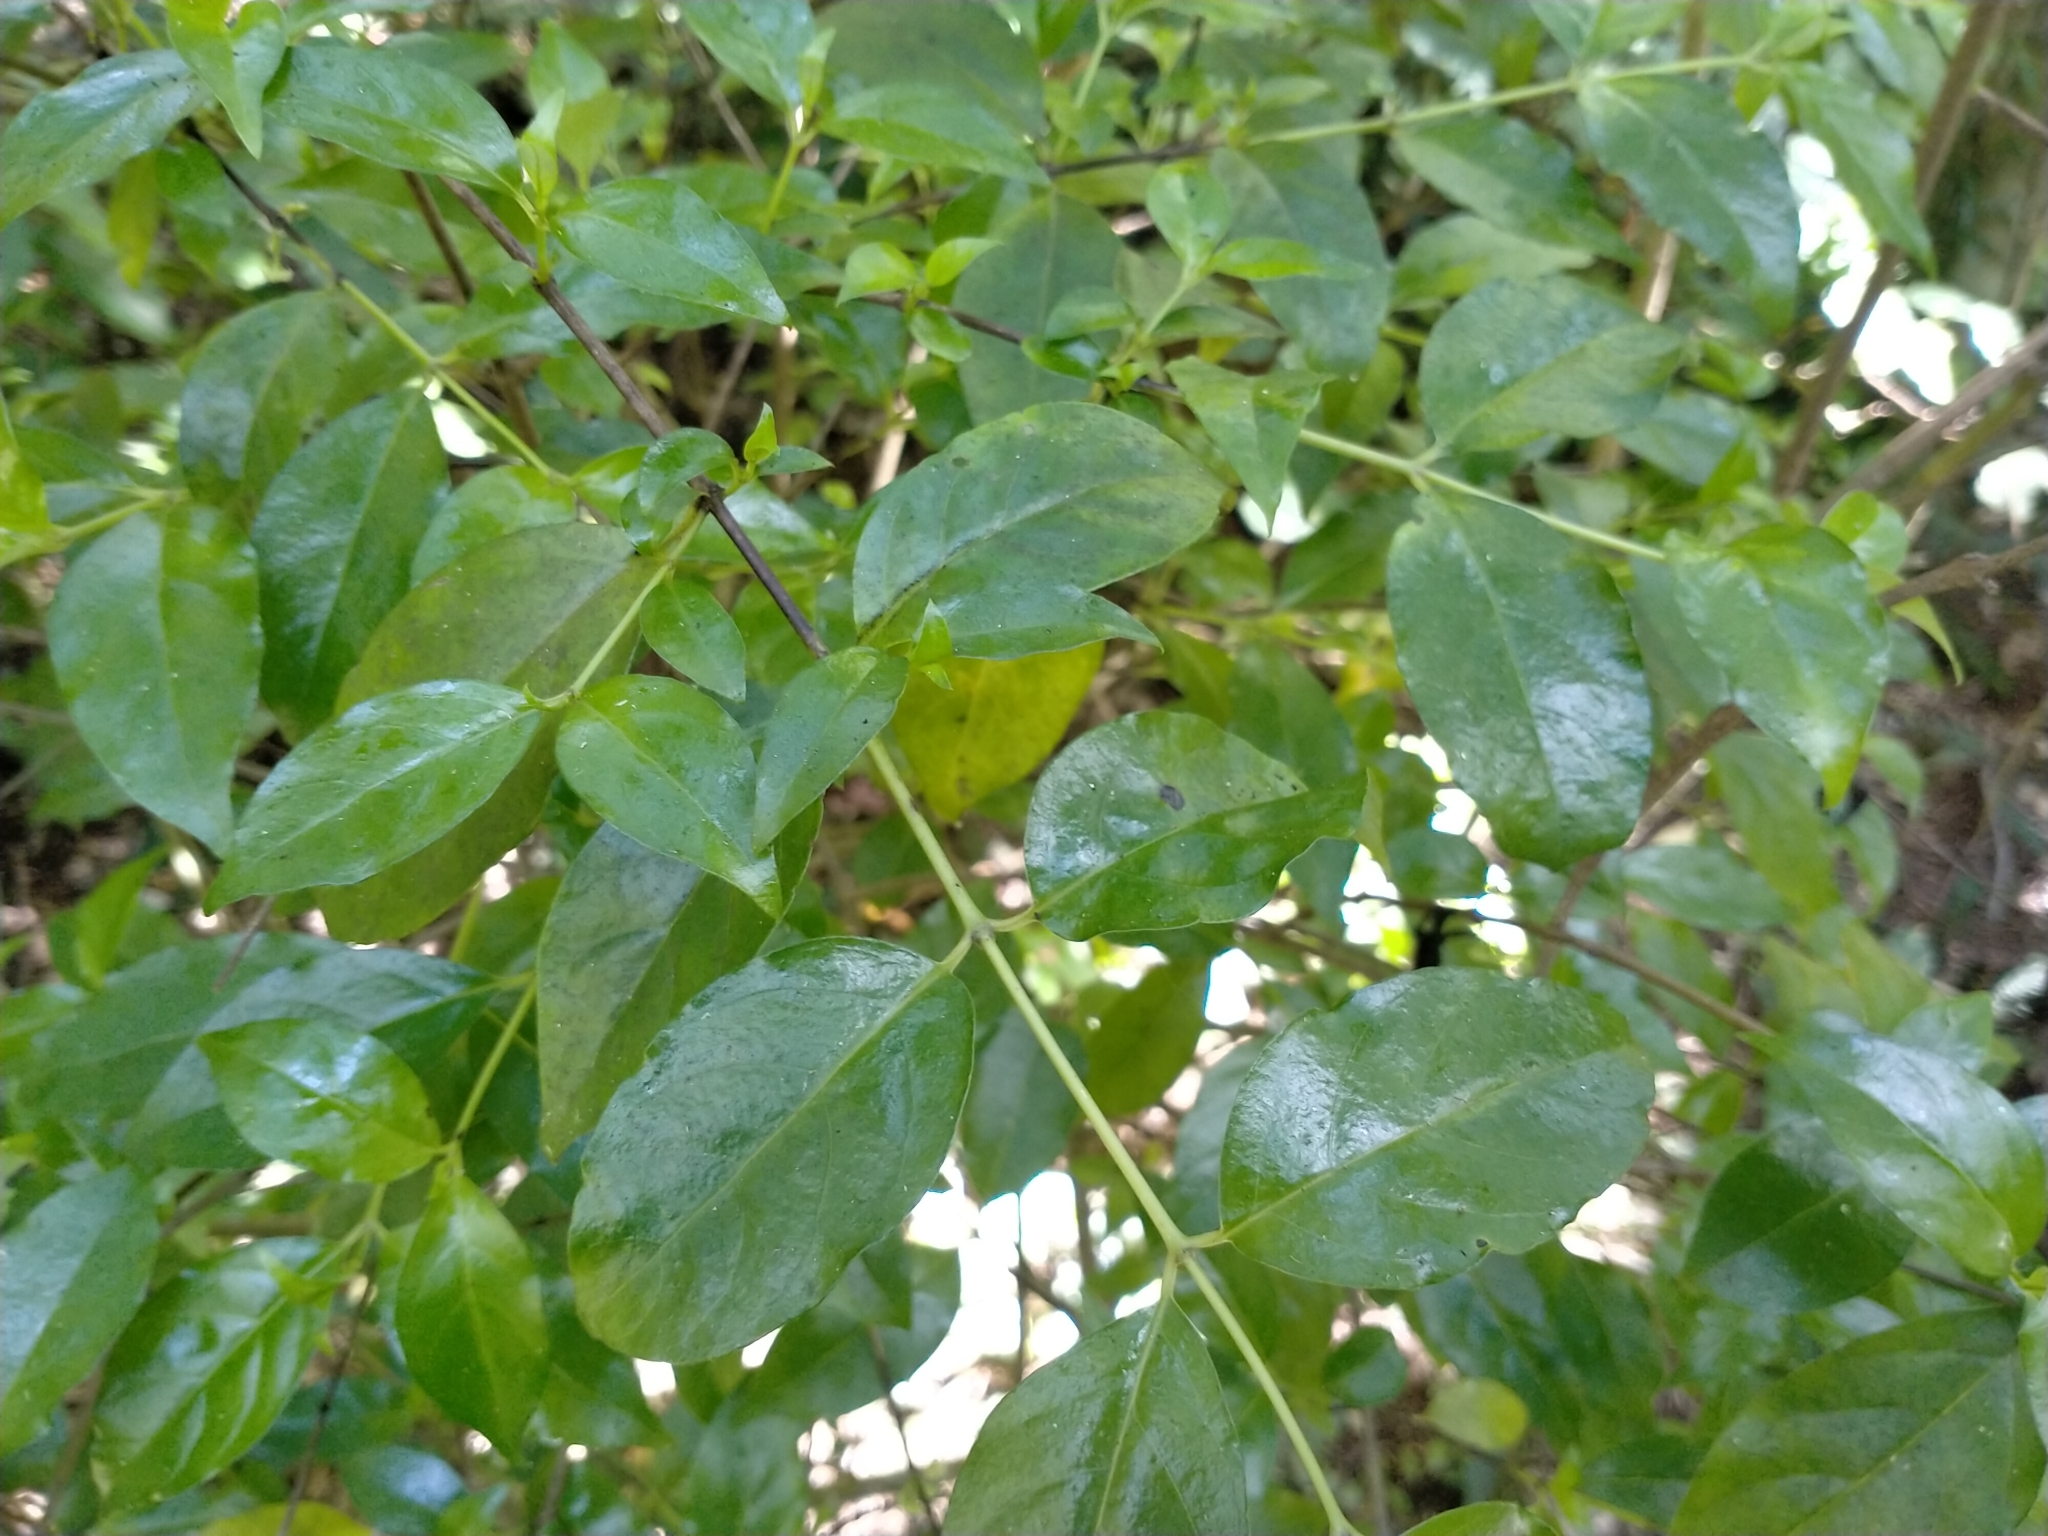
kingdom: Plantae
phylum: Tracheophyta
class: Magnoliopsida
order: Gentianales
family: Loganiaceae
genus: Geniostoma
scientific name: Geniostoma ligustrifolium
